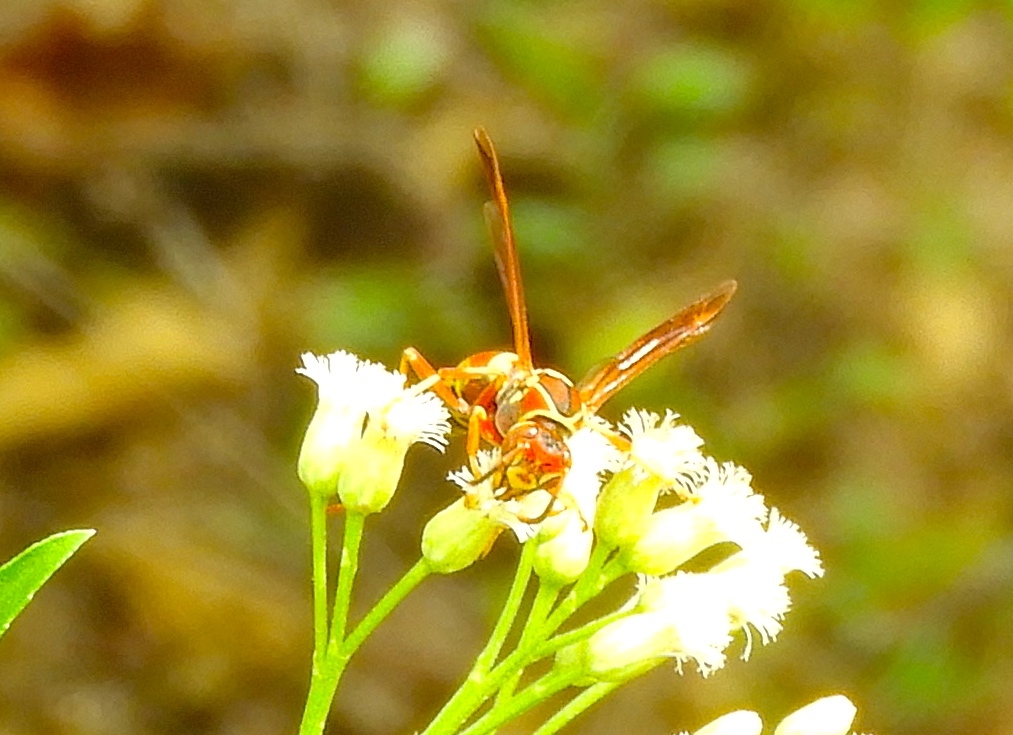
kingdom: Animalia
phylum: Arthropoda
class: Insecta
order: Hymenoptera
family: Eumenidae
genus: Polistes
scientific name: Polistes dorsalis
